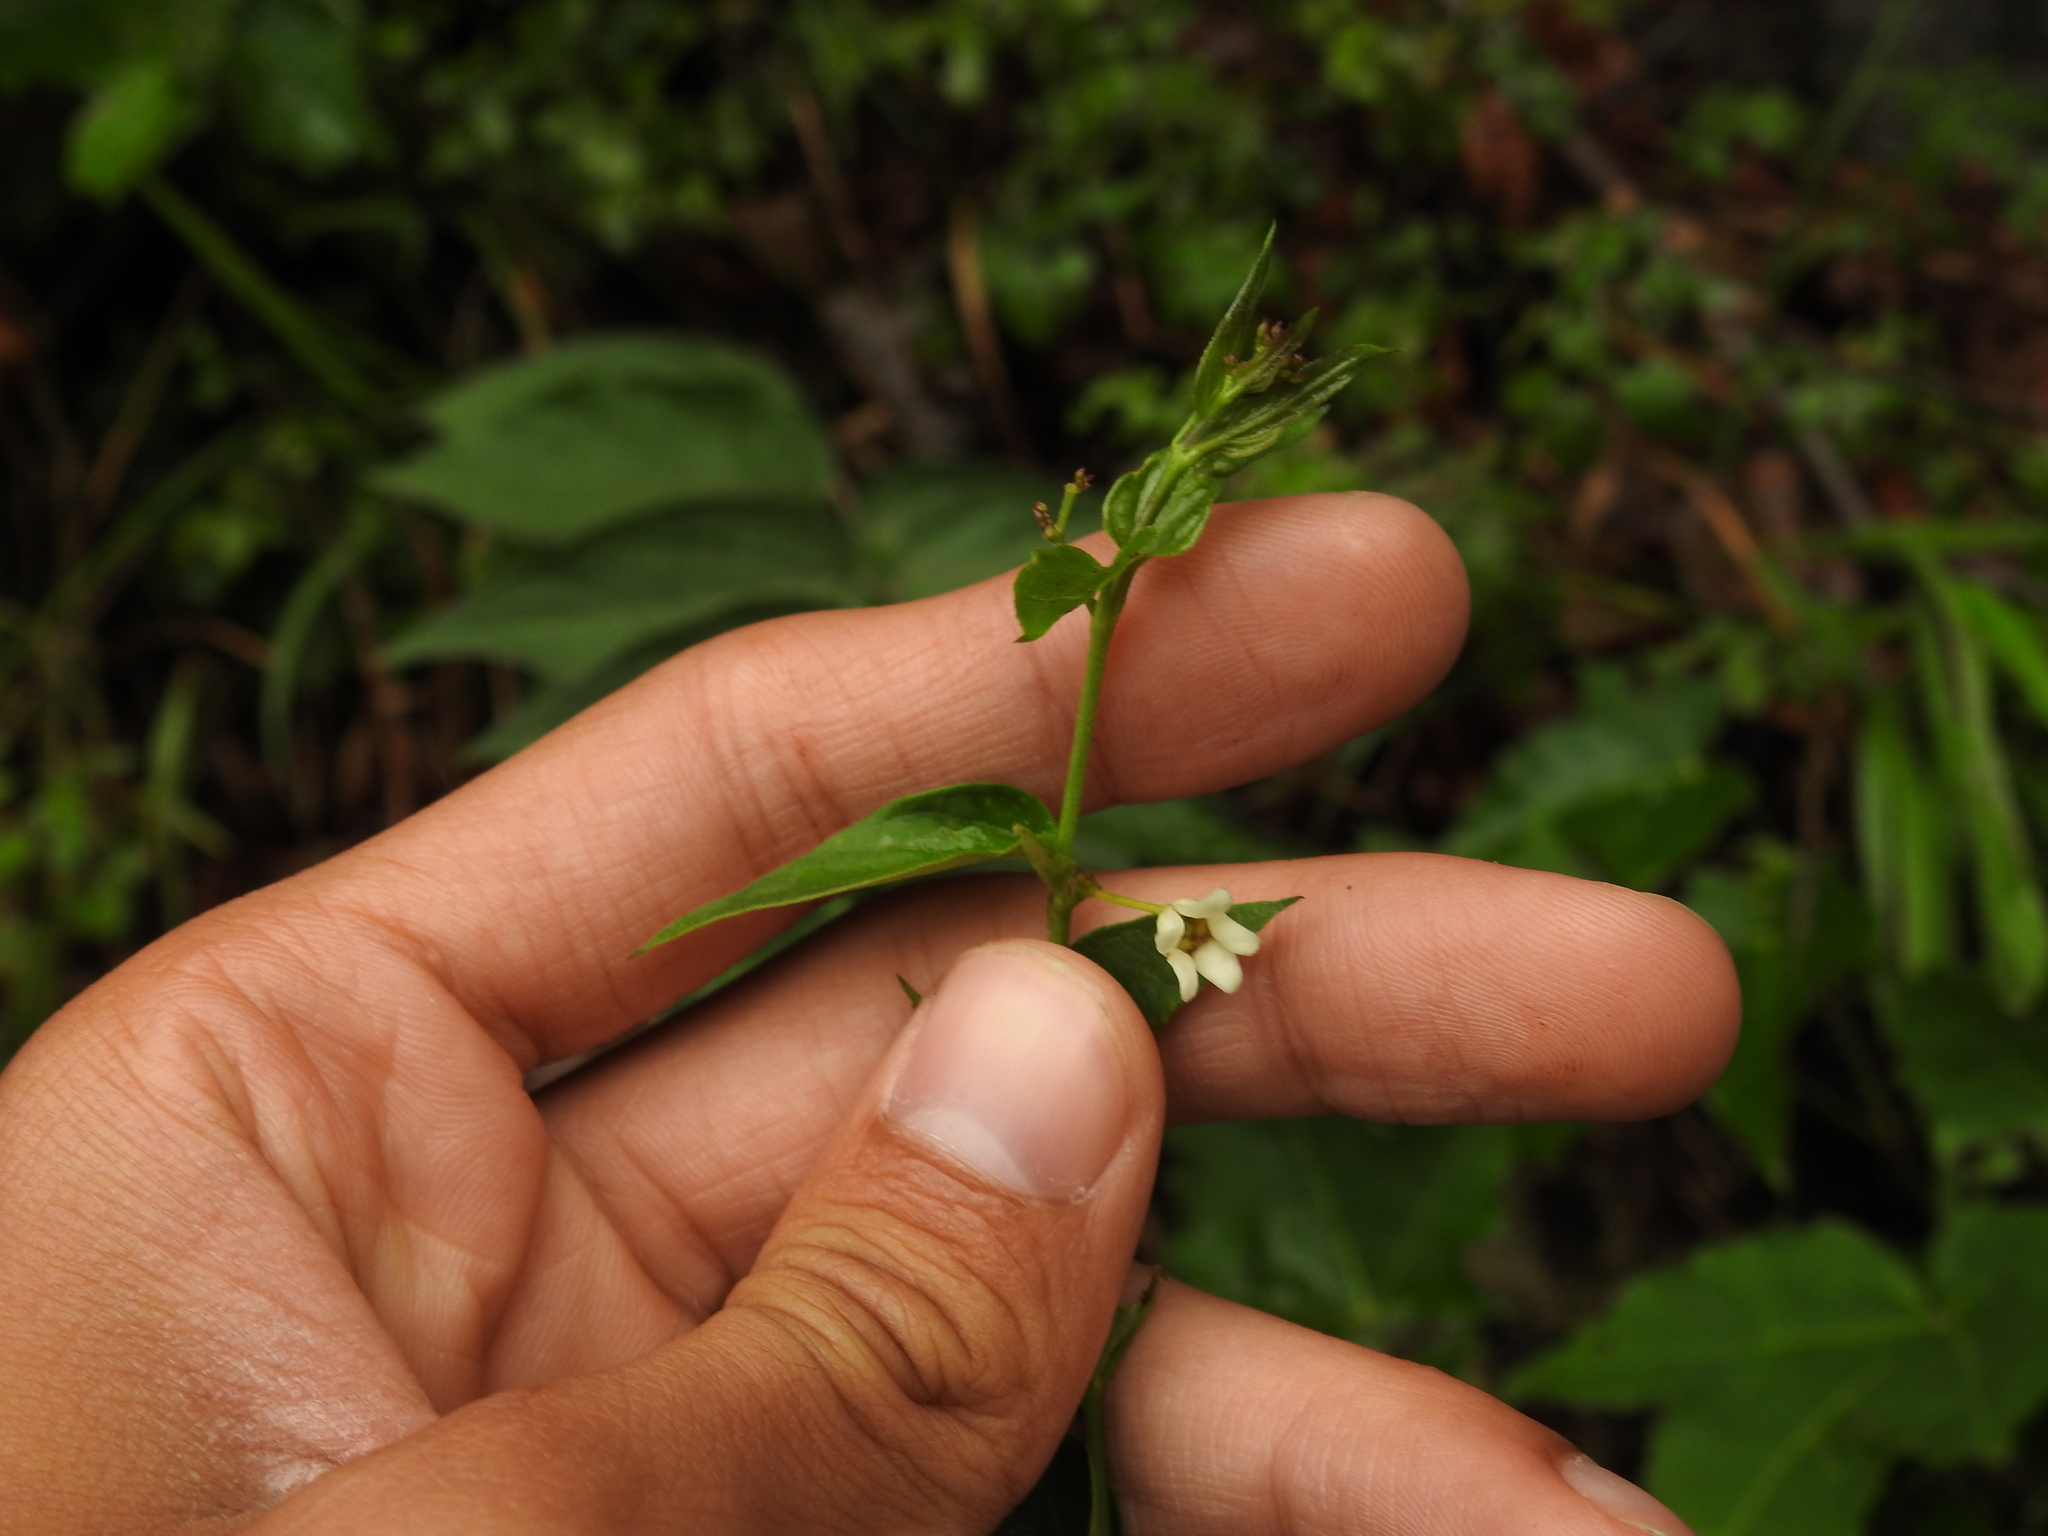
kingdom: Plantae
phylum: Tracheophyta
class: Magnoliopsida
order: Gentianales
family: Apocynaceae
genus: Vincetoxicum
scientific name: Vincetoxicum hirundinaria
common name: White swallowwort
